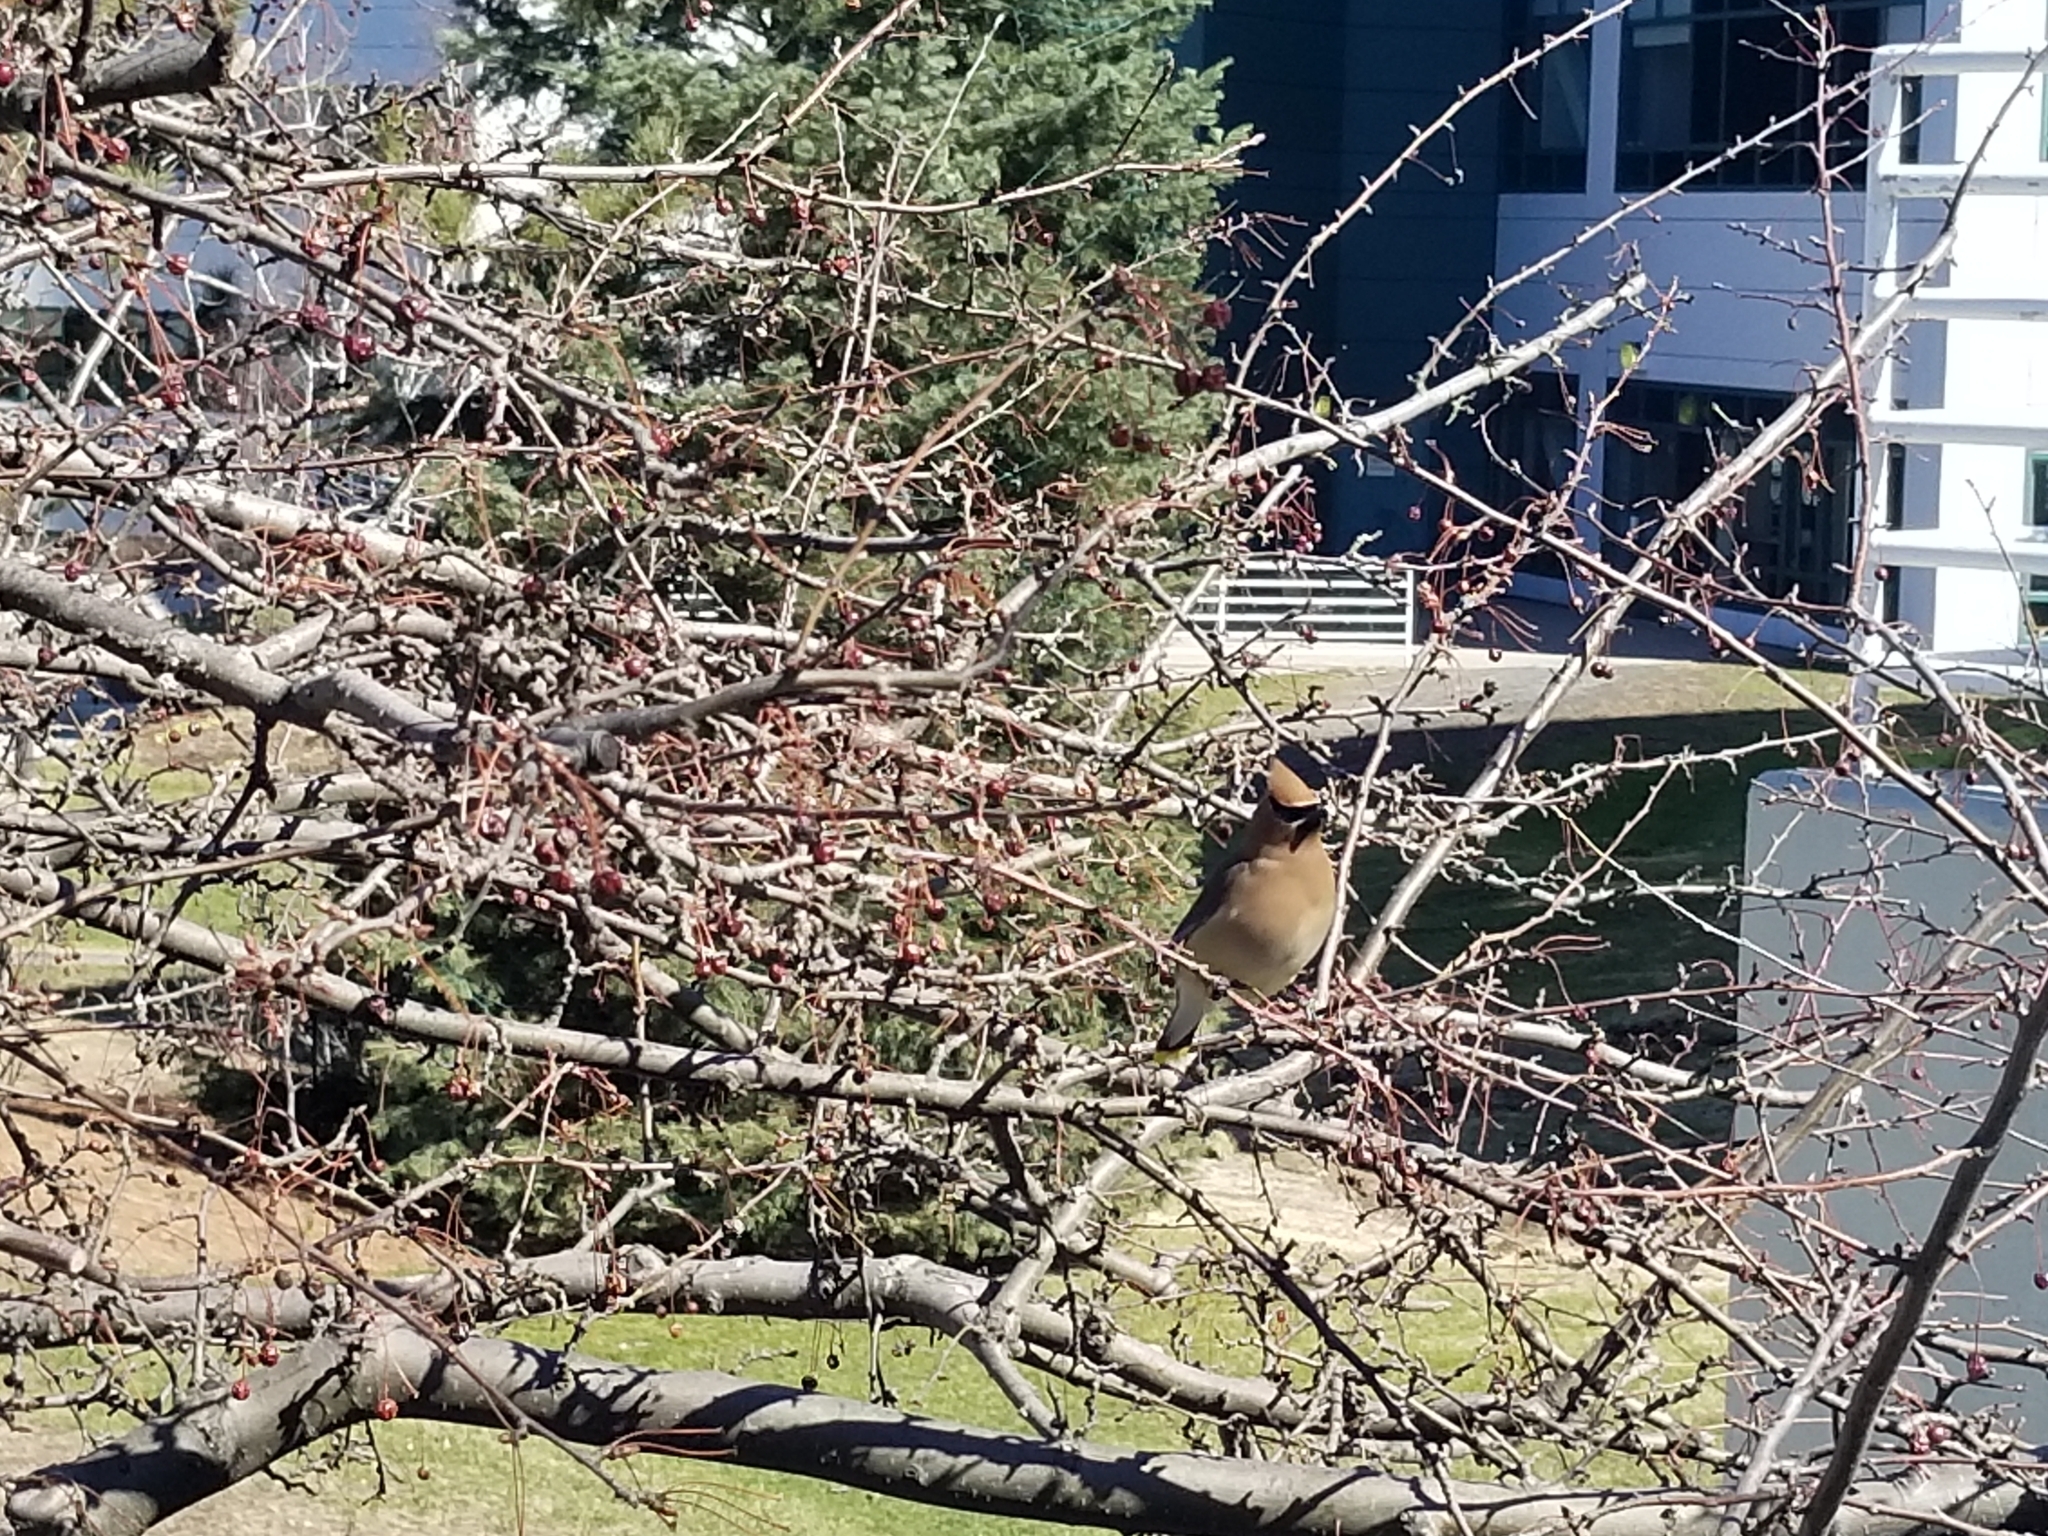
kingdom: Animalia
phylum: Chordata
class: Aves
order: Passeriformes
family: Bombycillidae
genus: Bombycilla
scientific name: Bombycilla cedrorum
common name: Cedar waxwing
